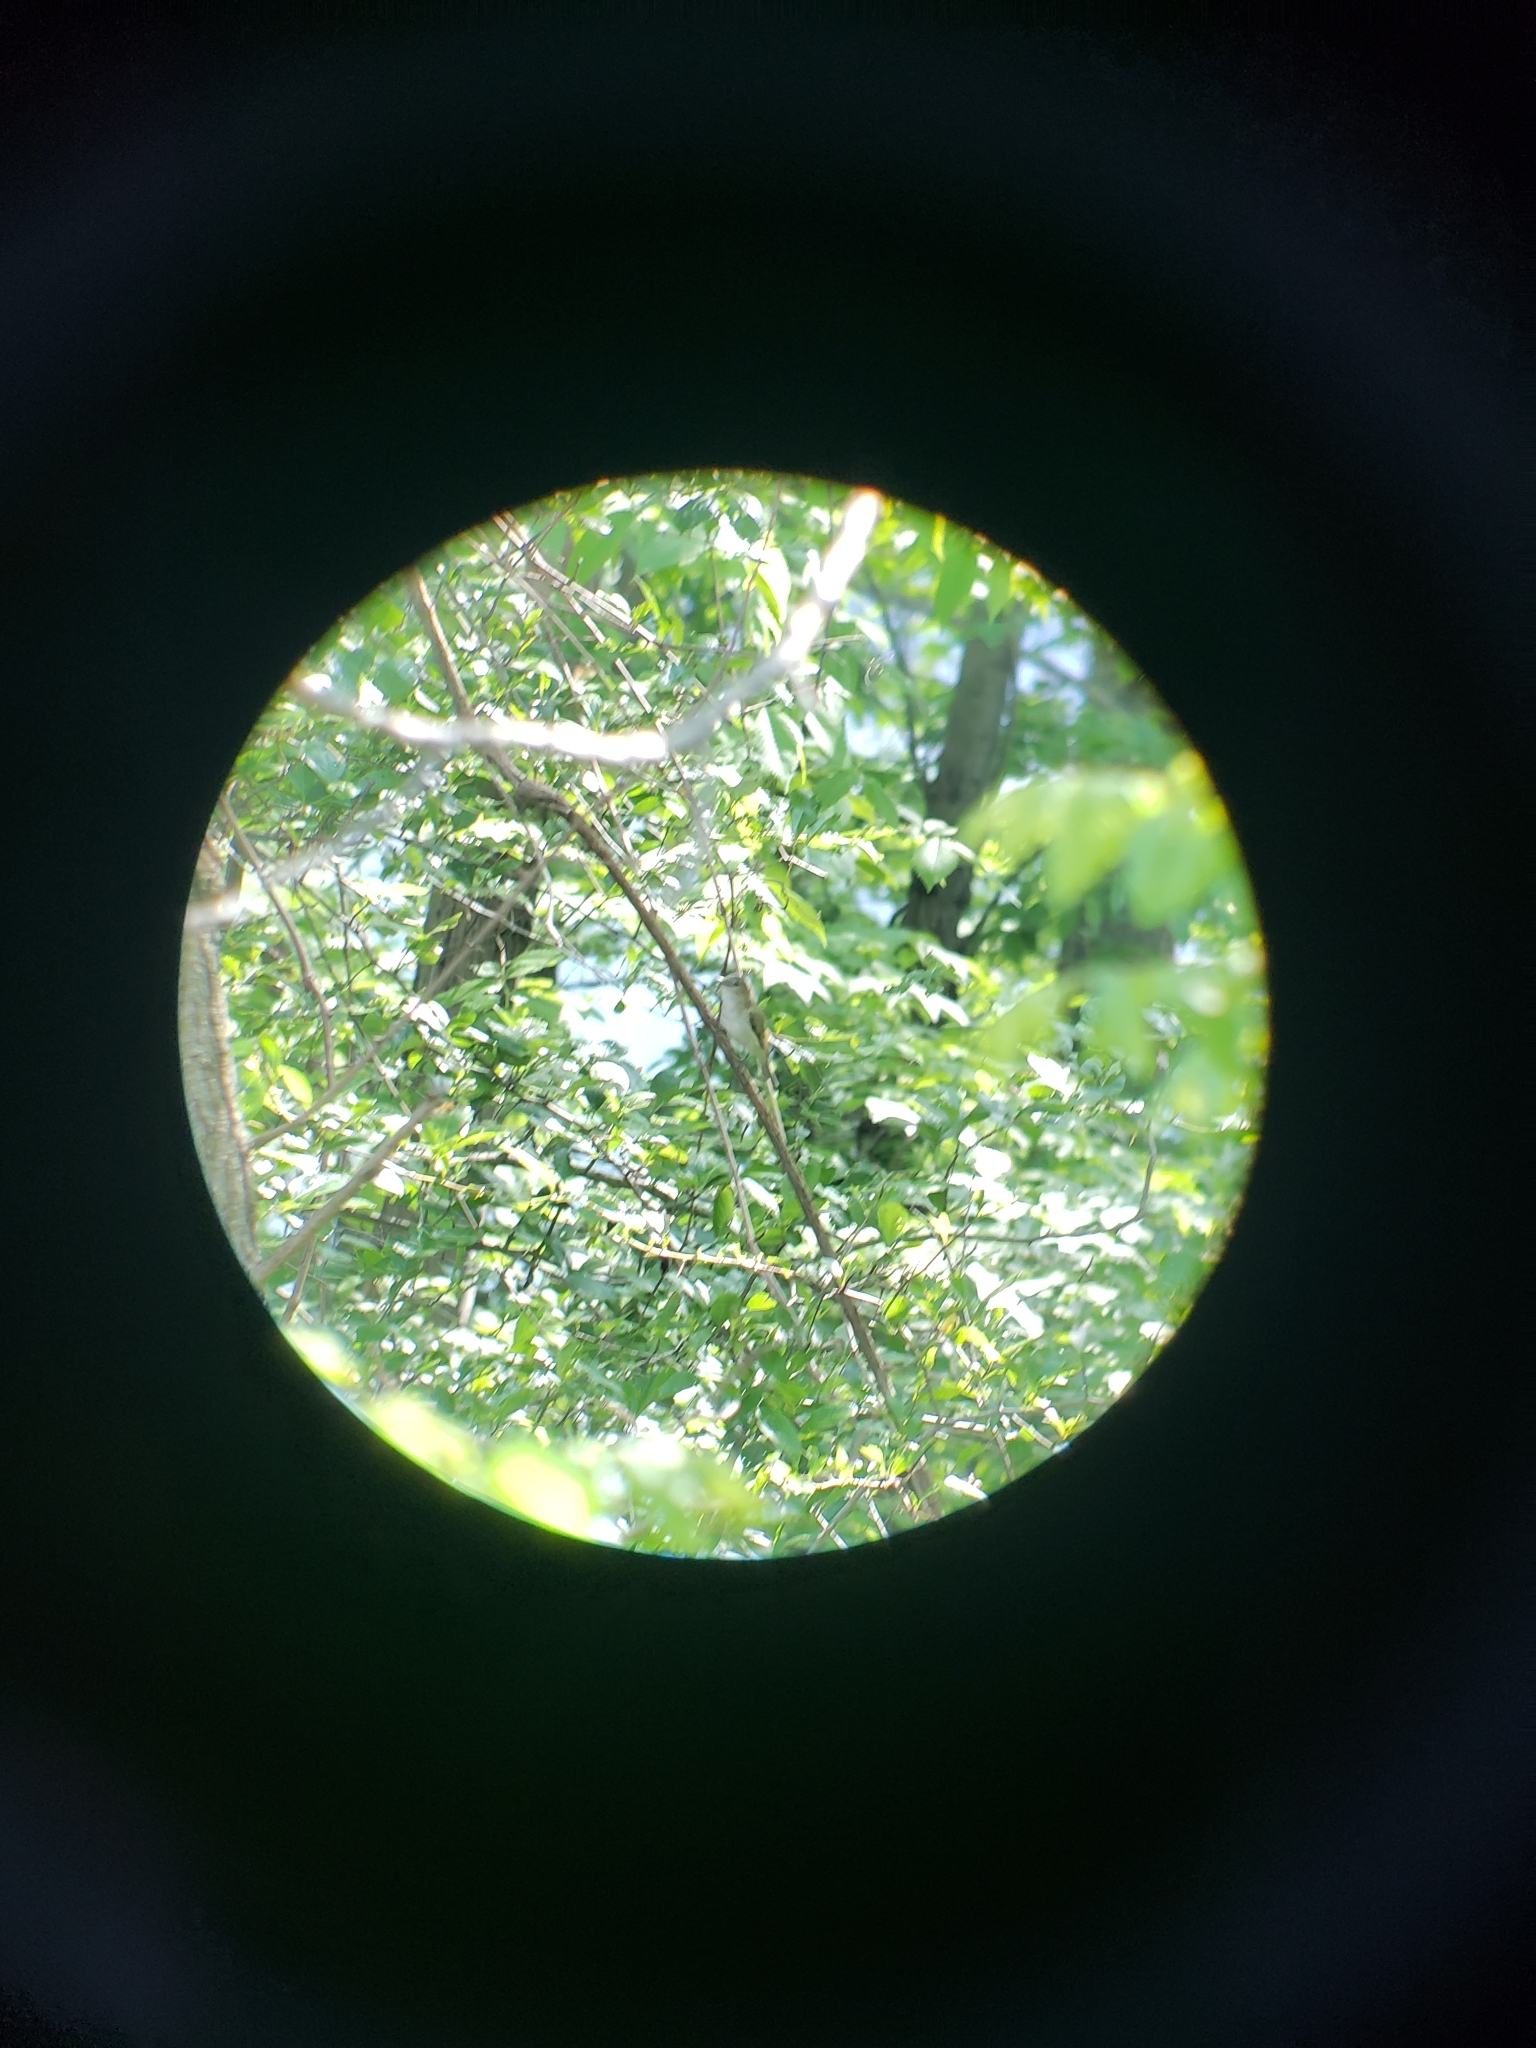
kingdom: Animalia
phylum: Chordata
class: Aves
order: Passeriformes
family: Vireonidae
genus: Vireo
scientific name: Vireo olivaceus
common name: Red-eyed vireo
